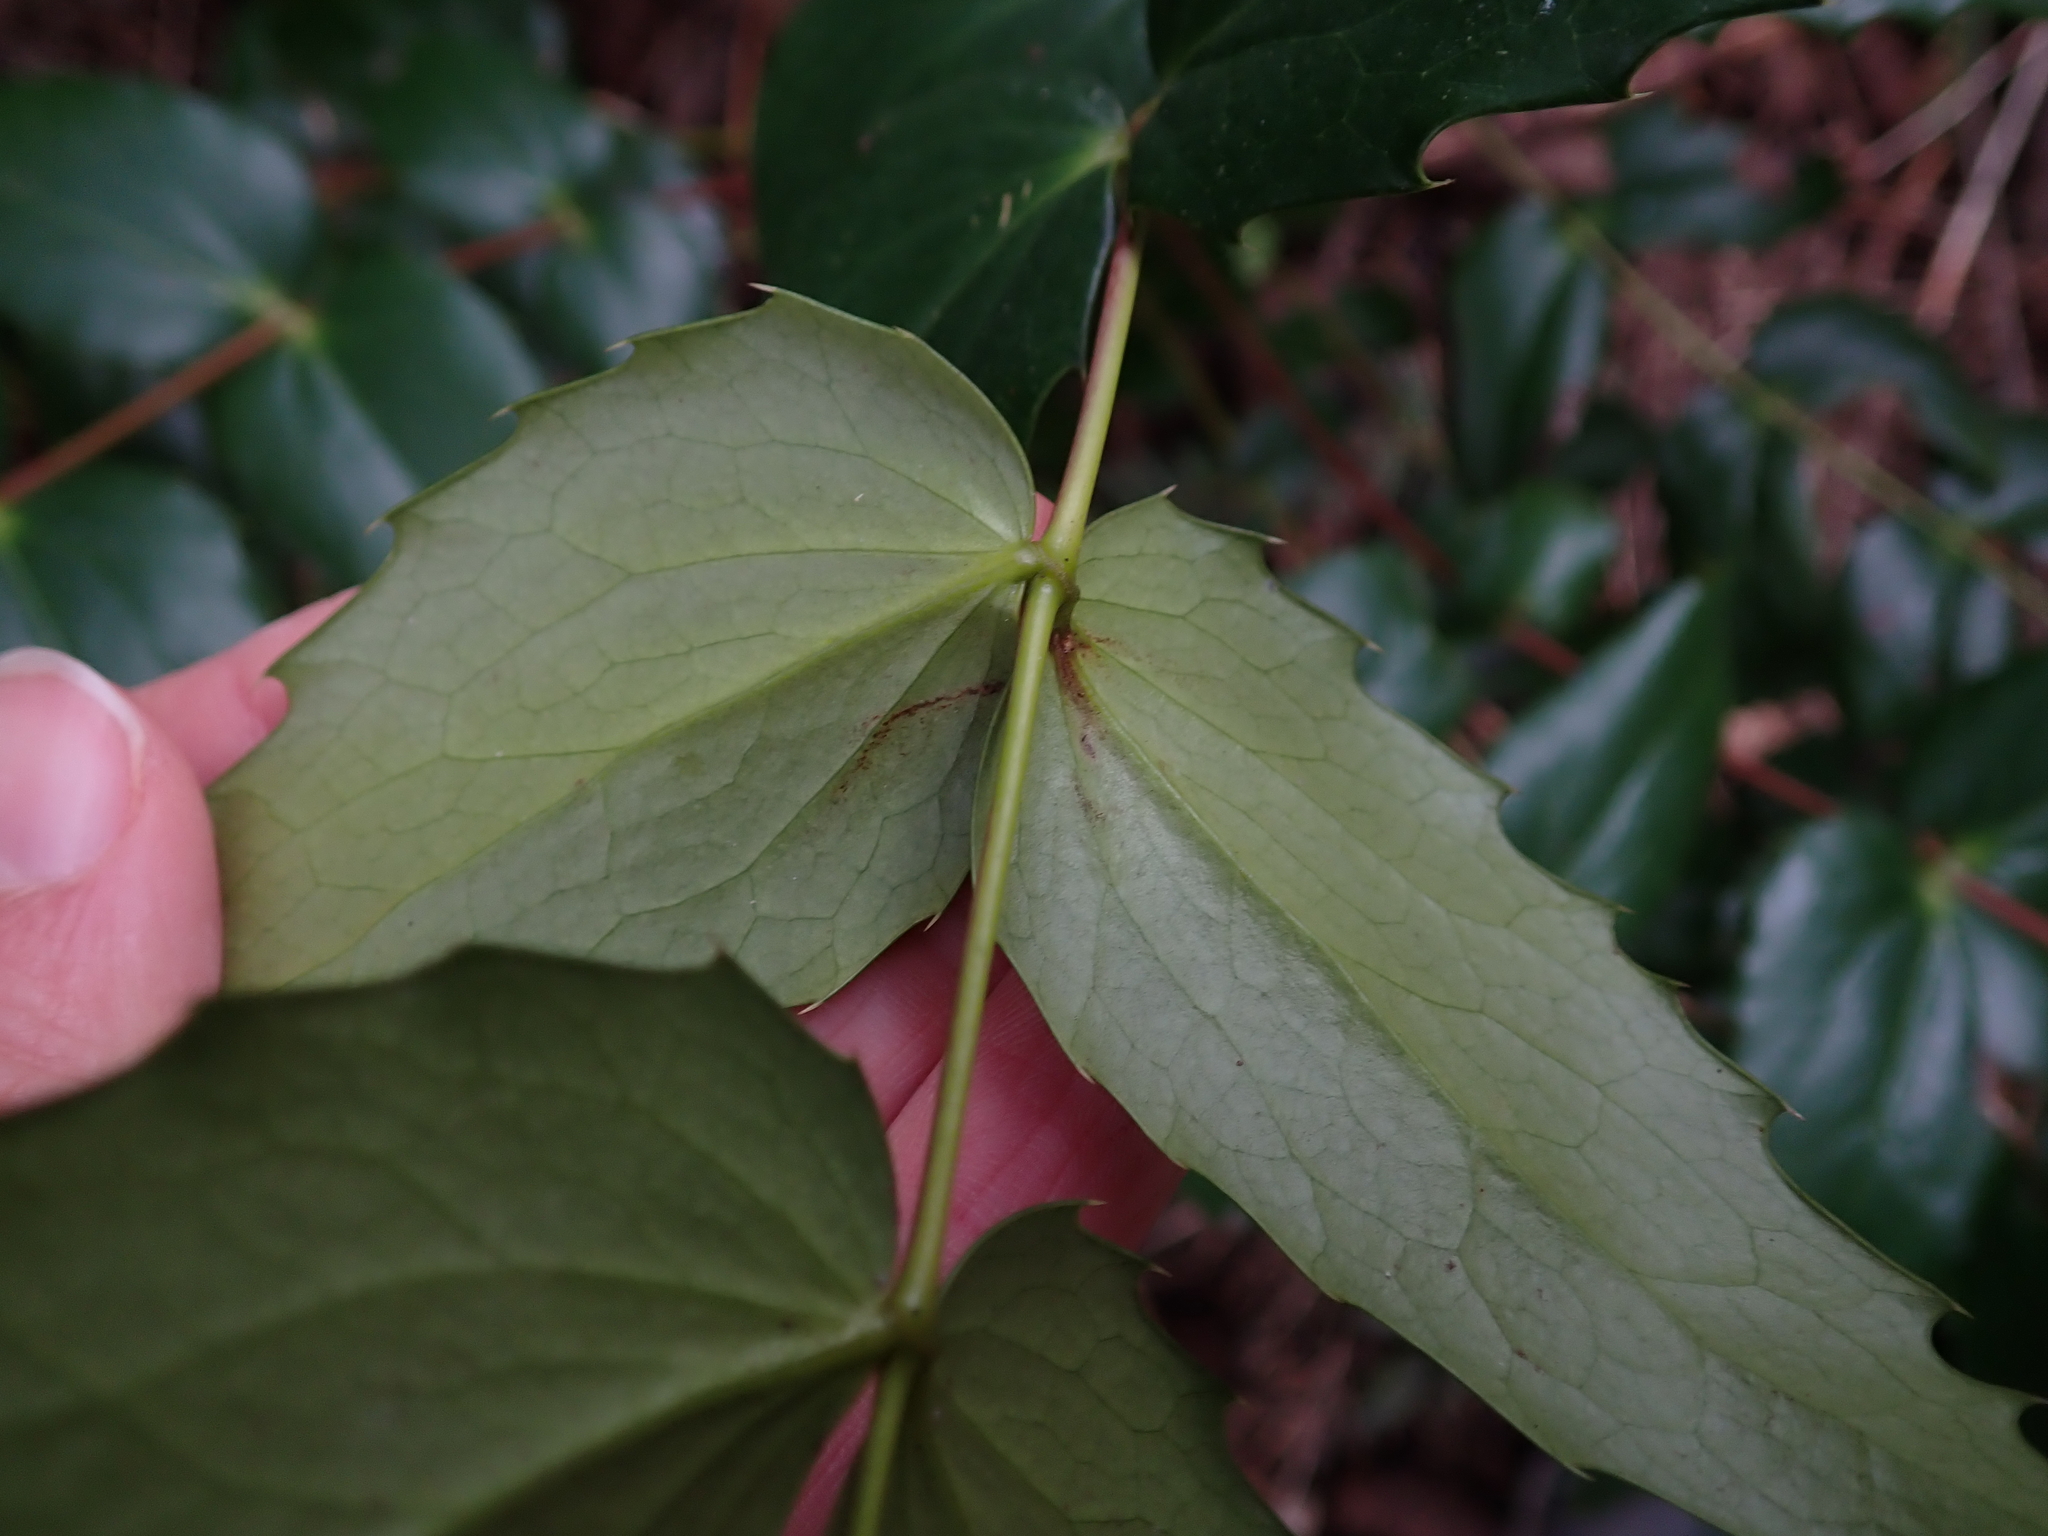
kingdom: Plantae
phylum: Tracheophyta
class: Magnoliopsida
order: Ranunculales
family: Berberidaceae
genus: Mahonia
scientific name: Mahonia nervosa
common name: Cascade oregon-grape
